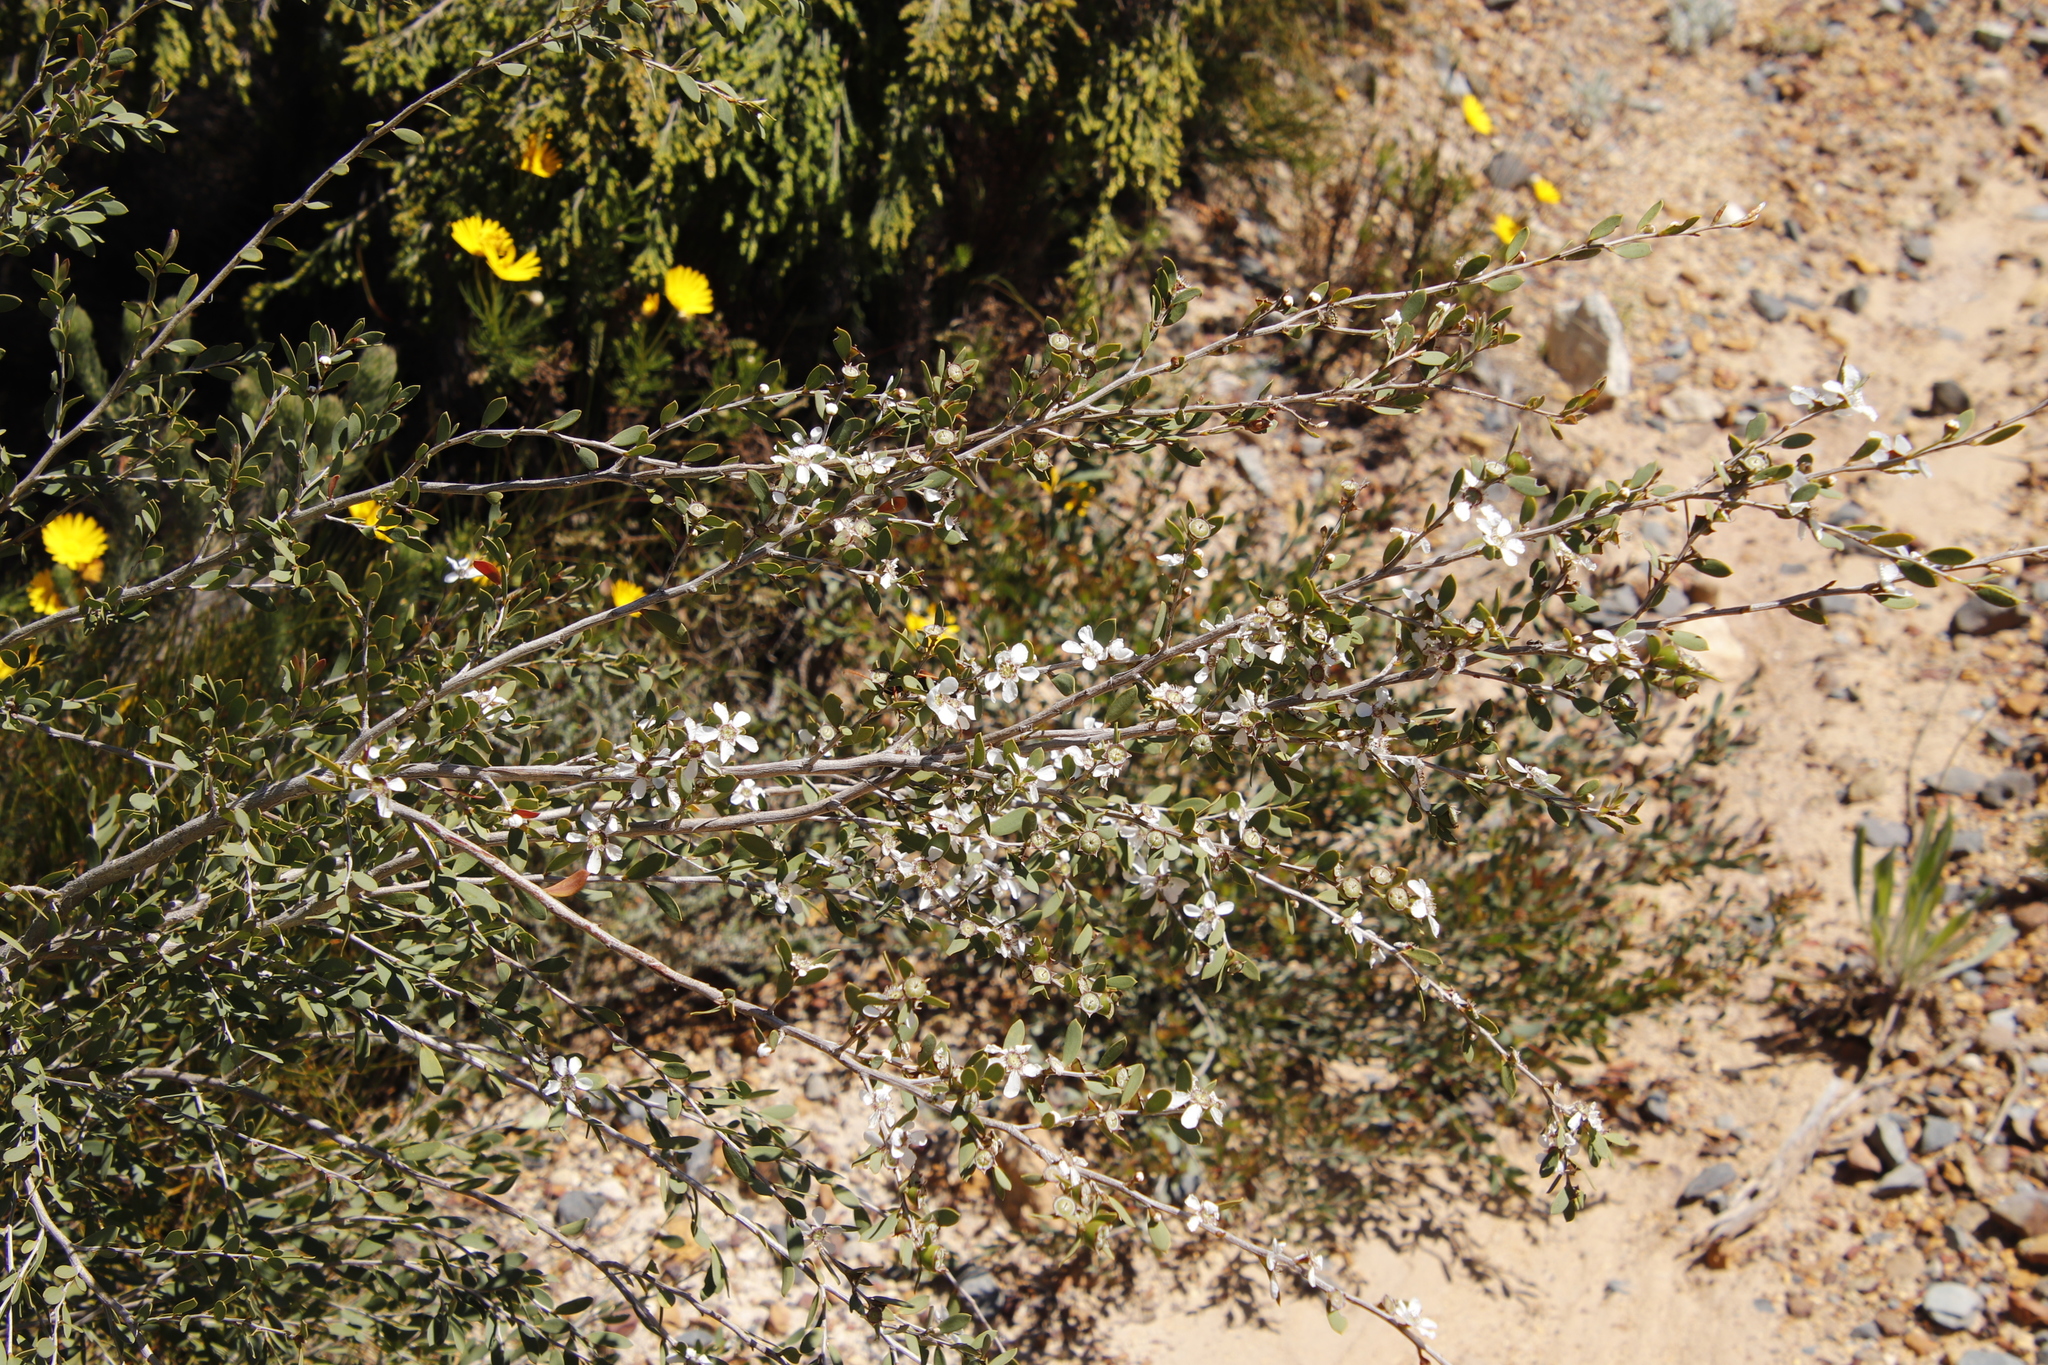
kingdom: Plantae
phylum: Tracheophyta
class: Magnoliopsida
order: Myrtales
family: Myrtaceae
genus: Leptospermum
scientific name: Leptospermum laevigatum
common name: Australian teatree
